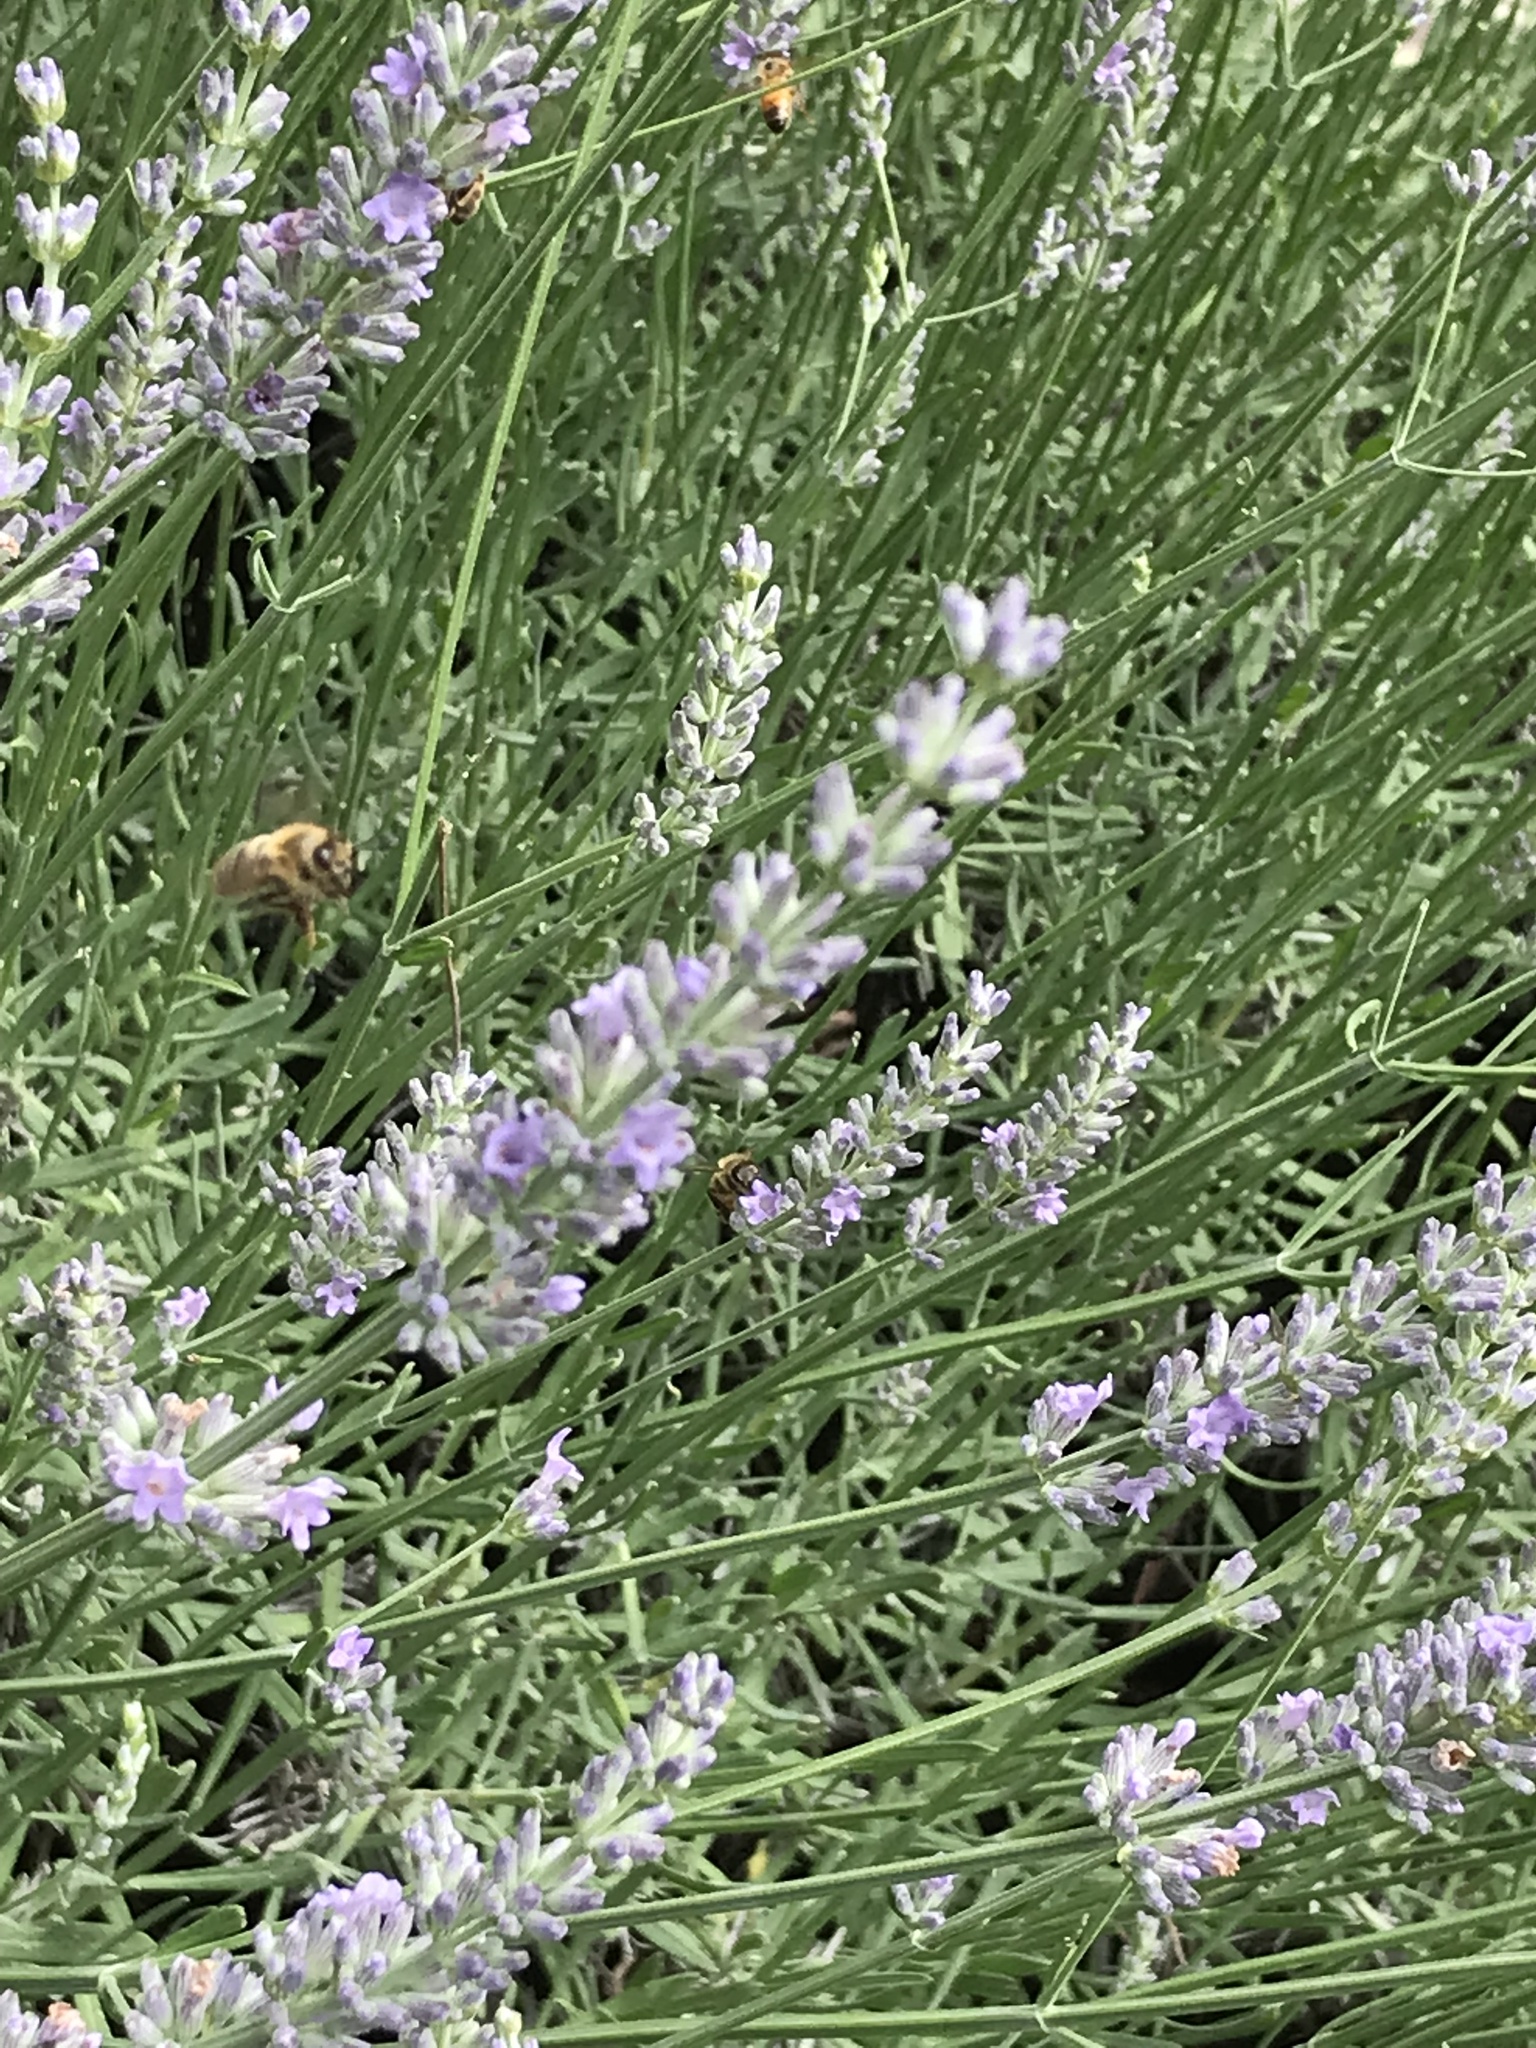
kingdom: Animalia
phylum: Arthropoda
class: Insecta
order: Hymenoptera
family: Apidae
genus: Apis
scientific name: Apis mellifera
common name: Honey bee
